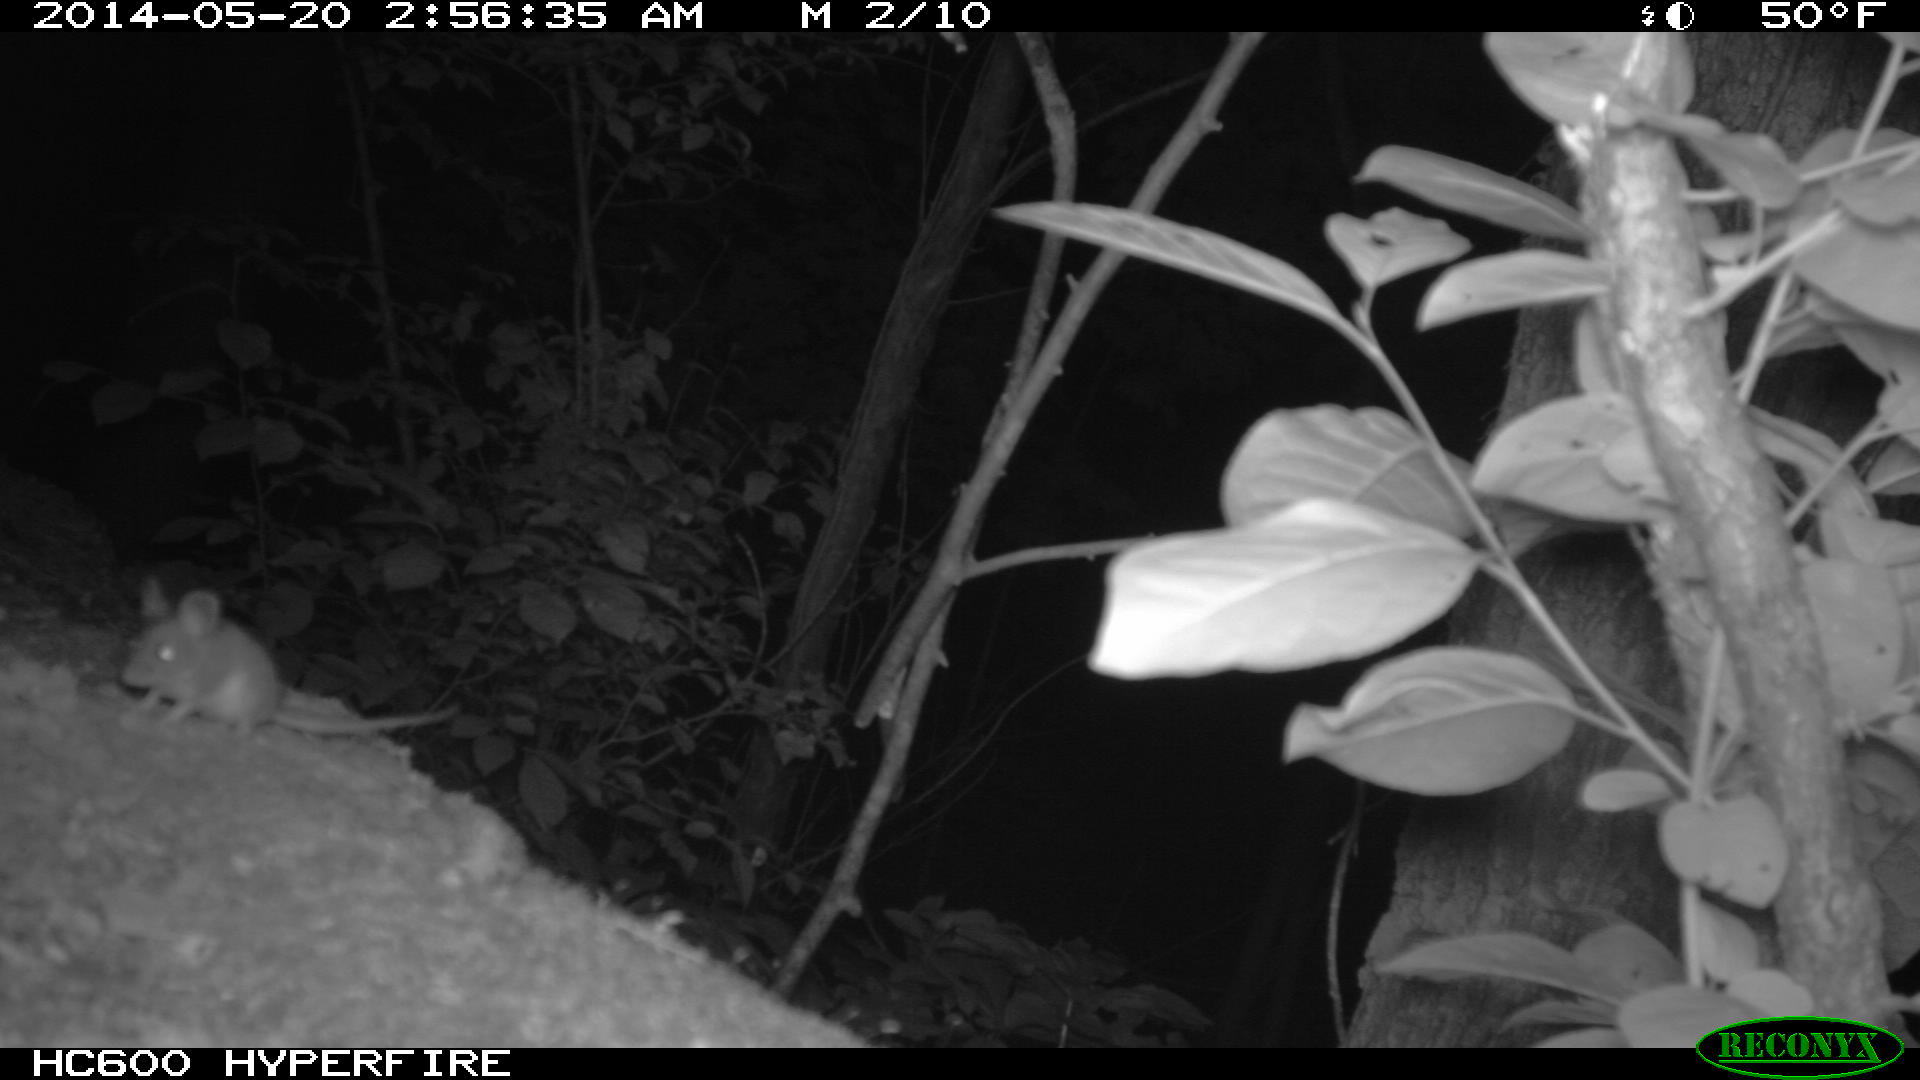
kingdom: Animalia
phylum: Chordata
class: Mammalia
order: Rodentia
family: Cricetidae
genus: Peromyscus
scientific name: Peromyscus leucopus
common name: White-footed deermouse
